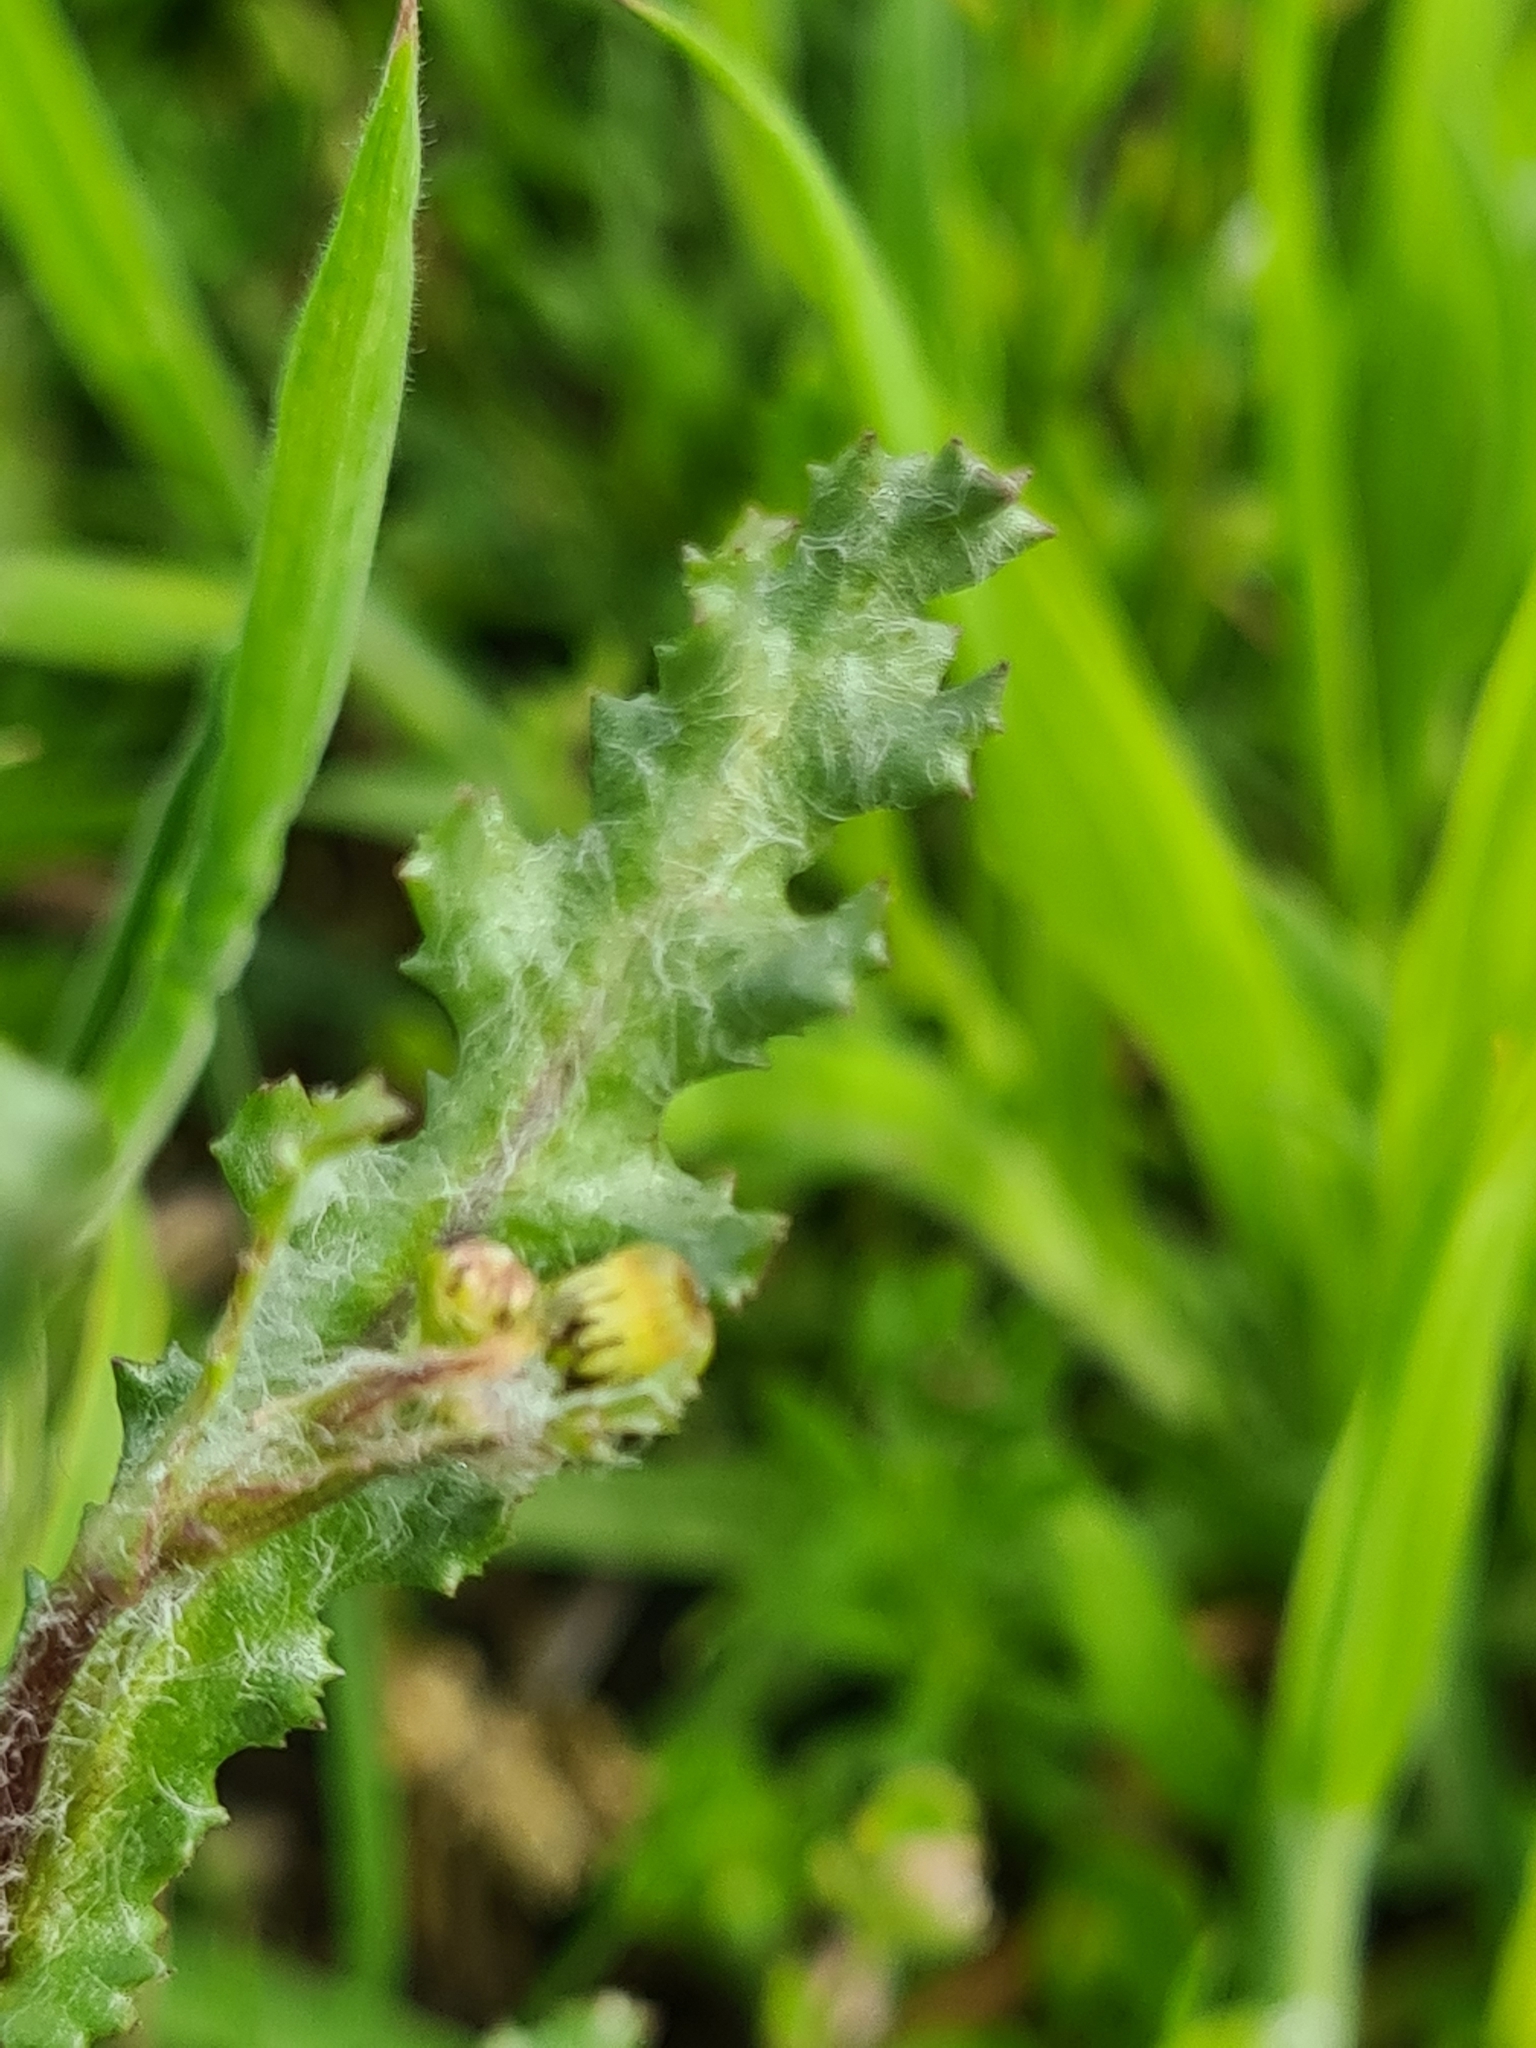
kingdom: Plantae
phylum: Tracheophyta
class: Magnoliopsida
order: Asterales
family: Asteraceae
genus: Senecio
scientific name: Senecio vulgaris
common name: Old-man-in-the-spring
